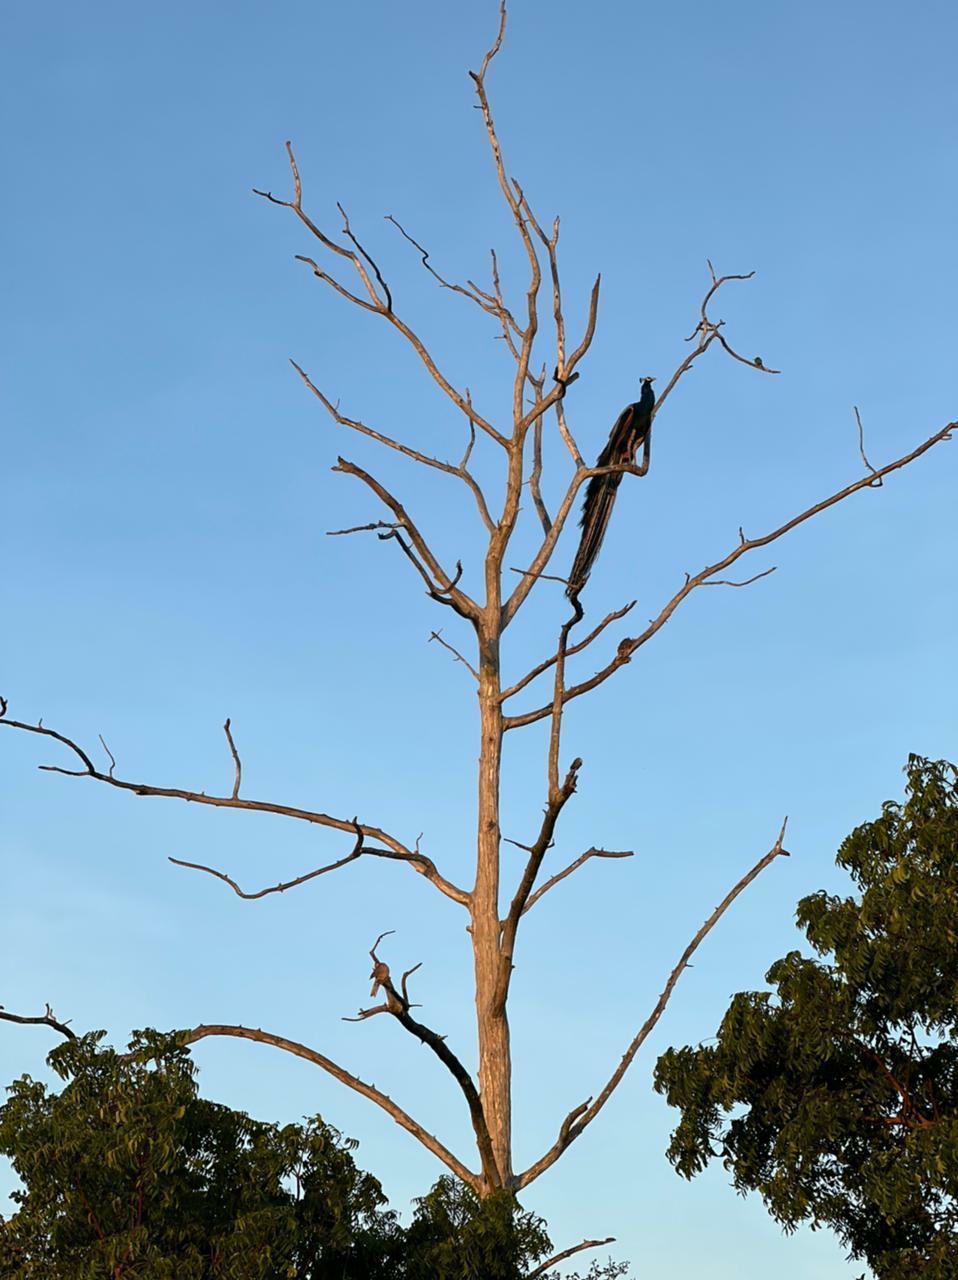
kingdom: Animalia
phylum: Chordata
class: Aves
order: Galliformes
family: Phasianidae
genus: Pavo
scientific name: Pavo cristatus
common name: Indian peafowl
